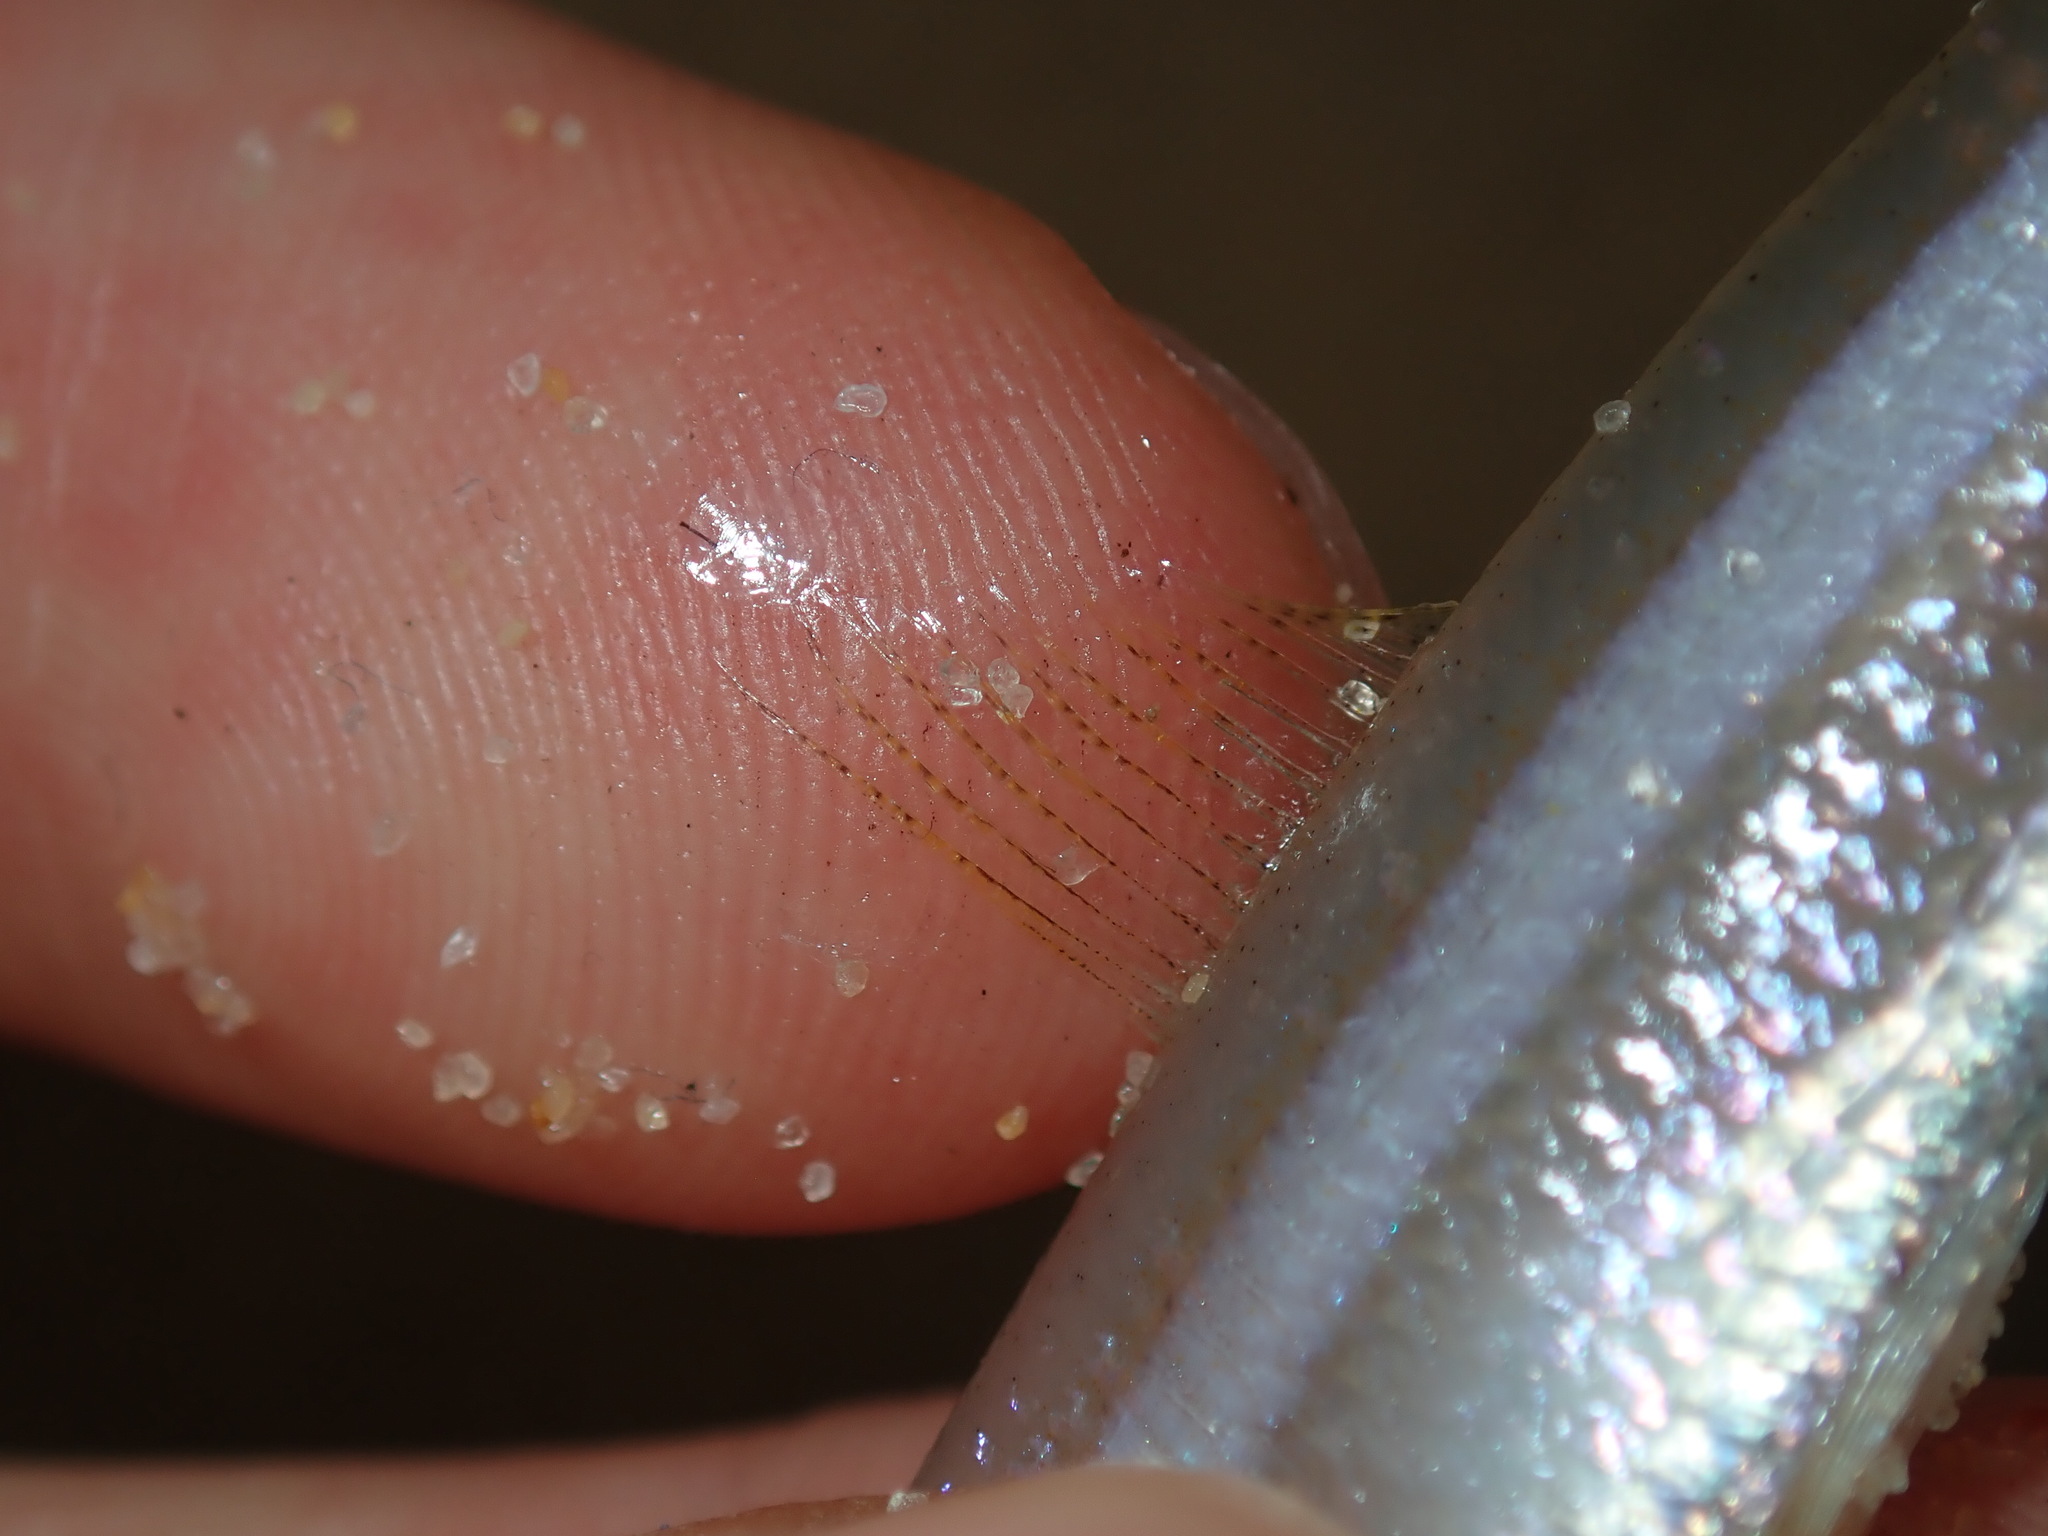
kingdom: Animalia
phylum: Chordata
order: Clupeiformes
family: Clupeidae
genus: Hyperlophus
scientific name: Hyperlophus vittatus
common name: Sandy sprat
